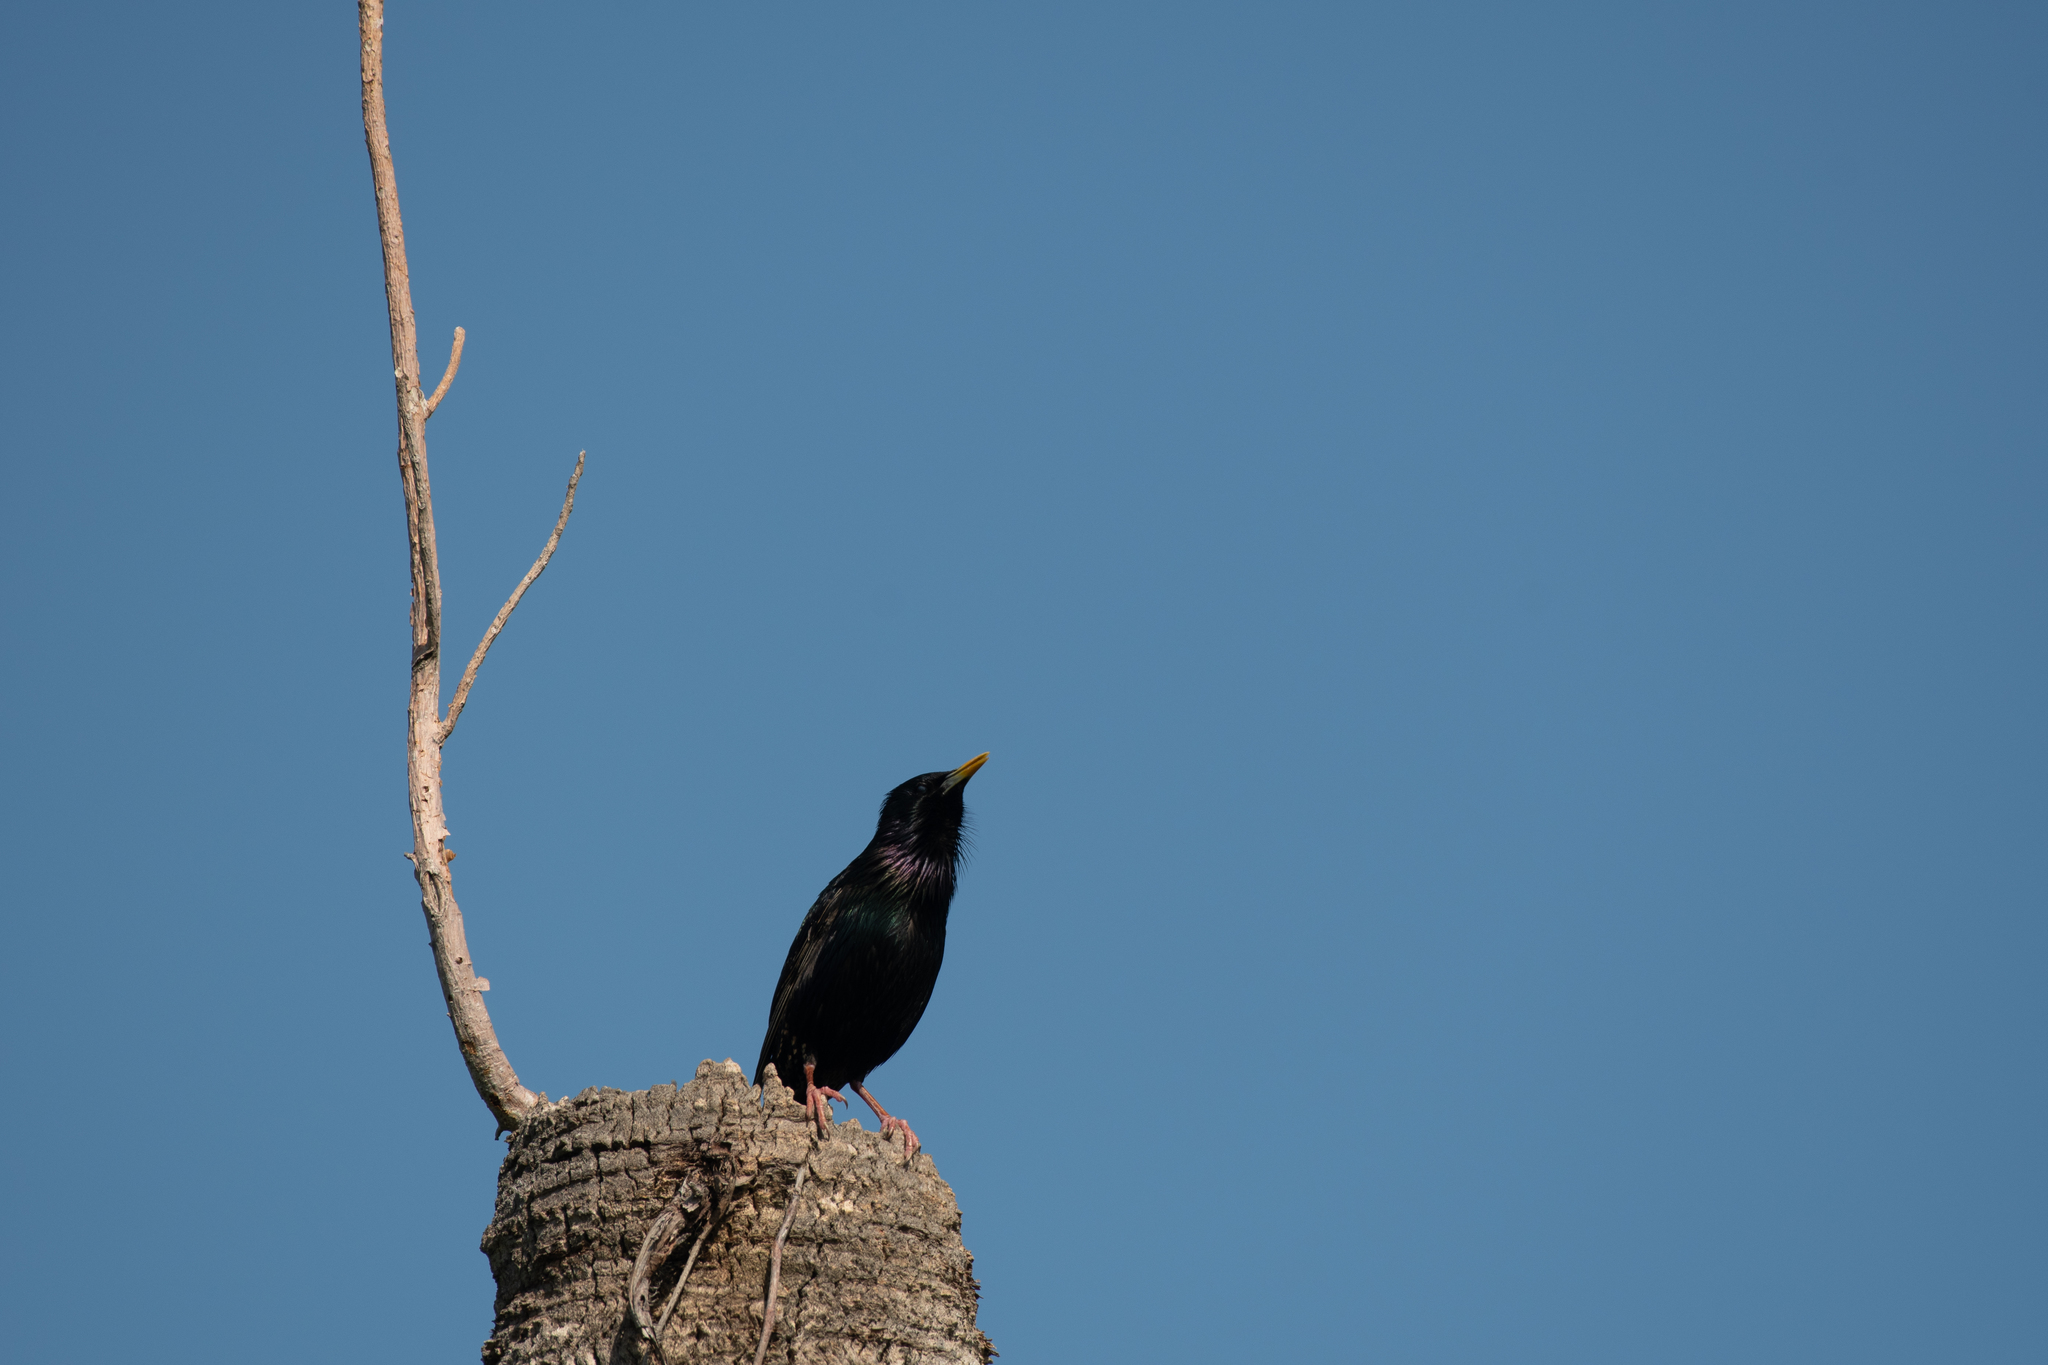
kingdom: Animalia
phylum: Chordata
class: Aves
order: Passeriformes
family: Sturnidae
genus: Sturnus
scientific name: Sturnus vulgaris
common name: Common starling
